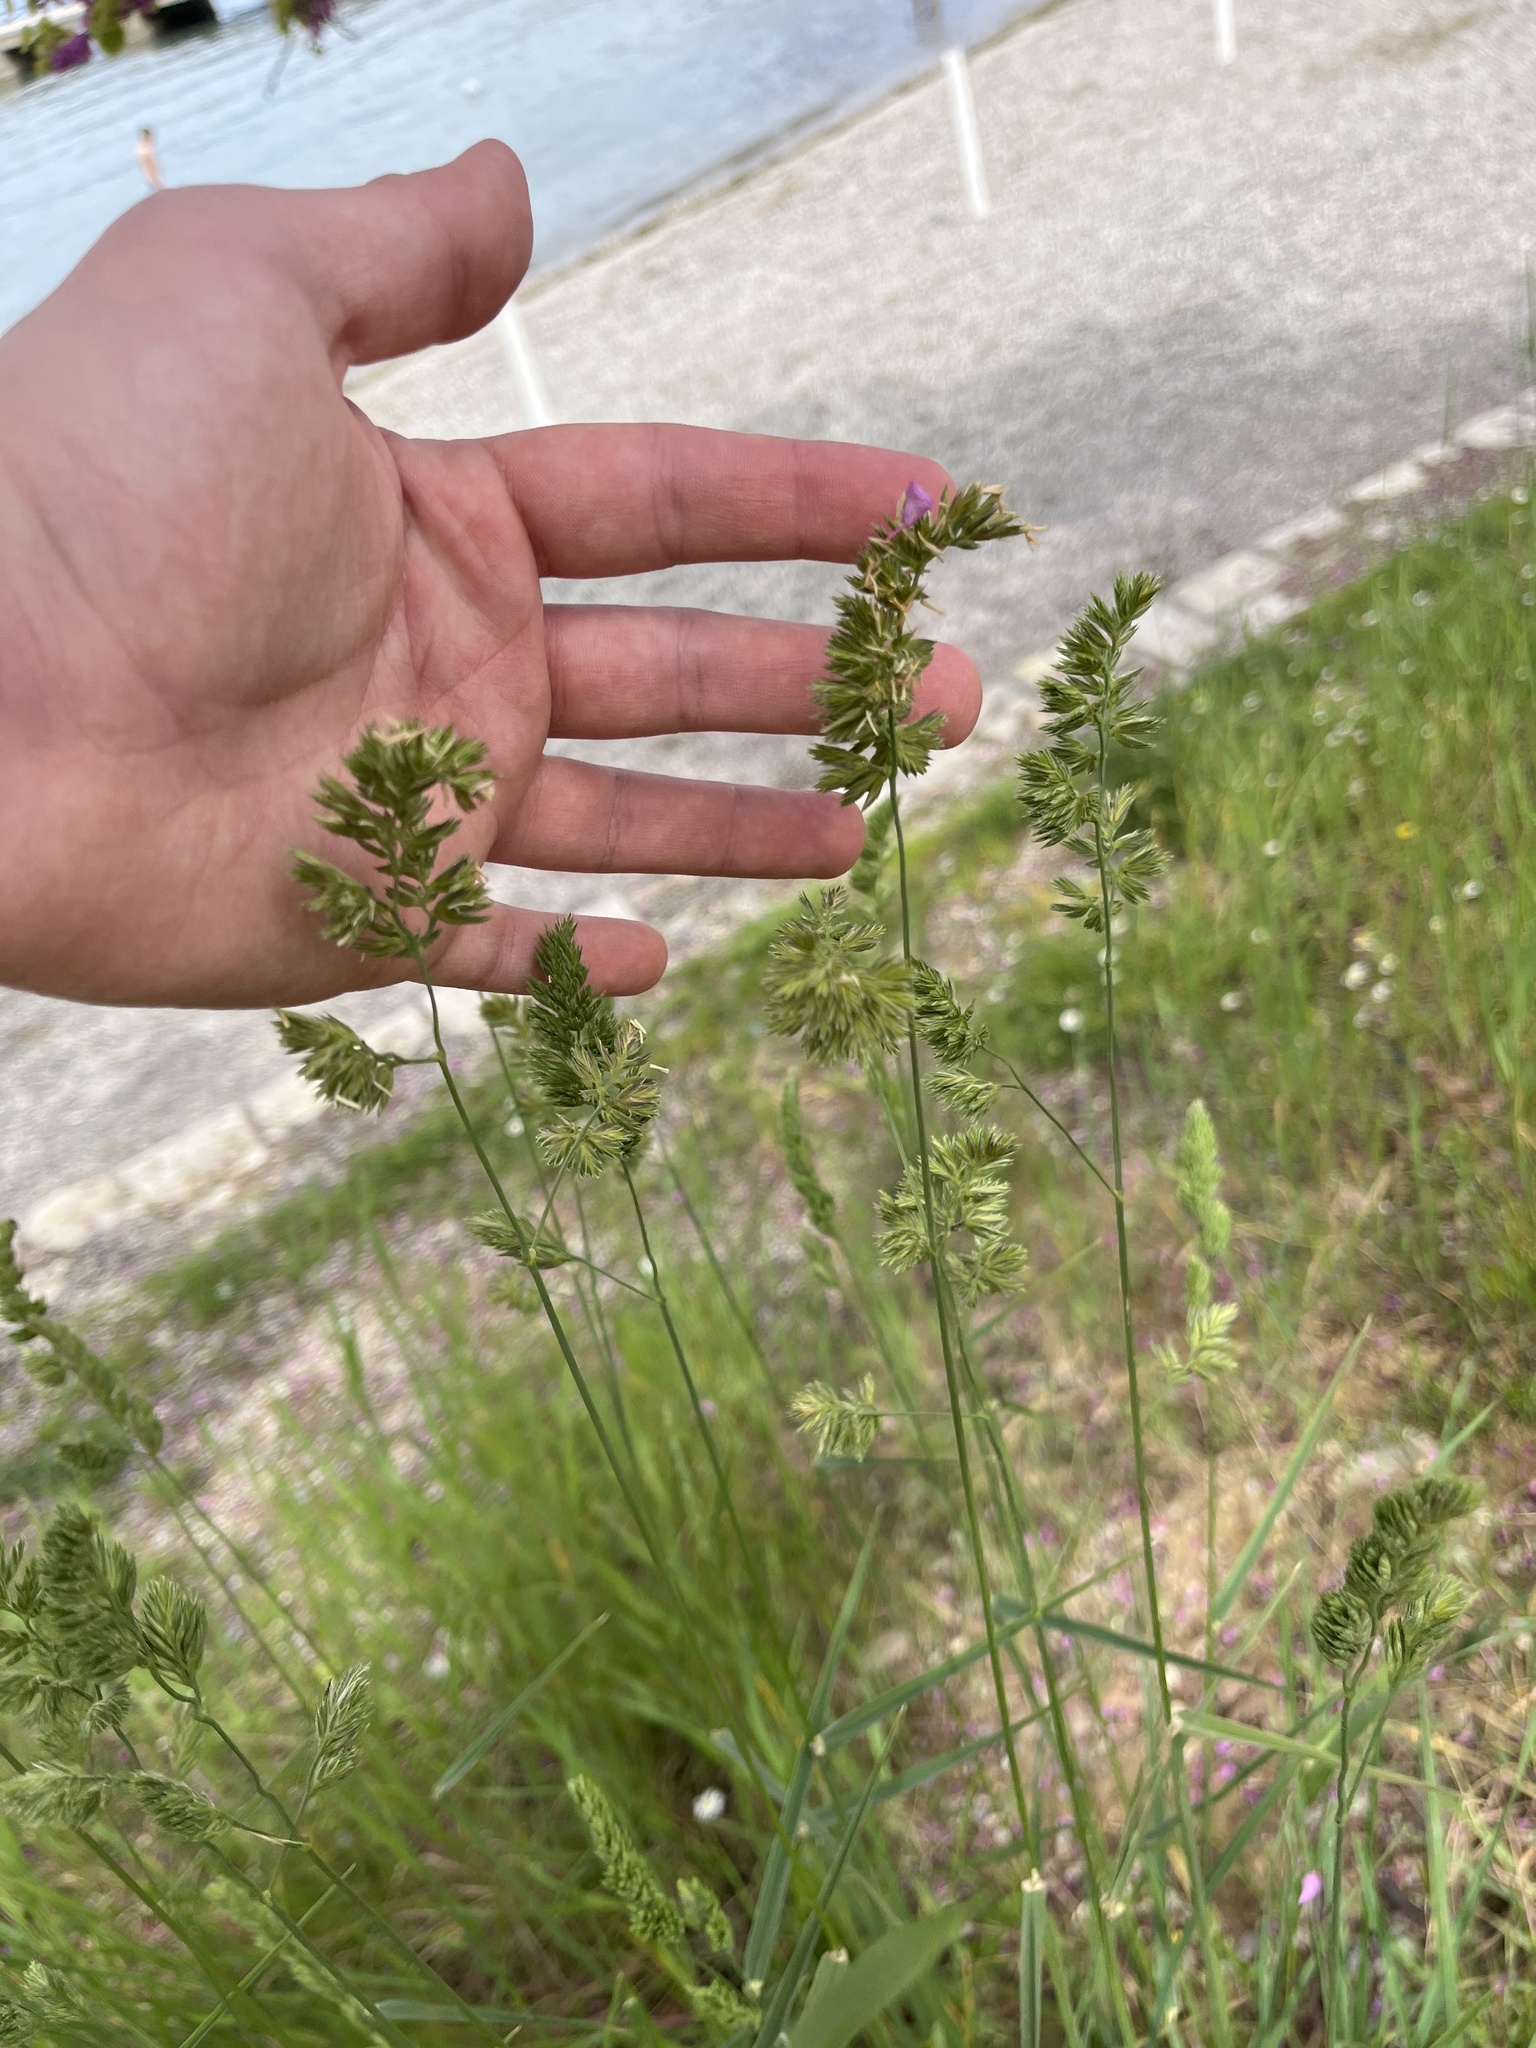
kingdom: Plantae
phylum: Tracheophyta
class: Liliopsida
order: Poales
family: Poaceae
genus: Dactylis
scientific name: Dactylis glomerata
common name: Orchardgrass
